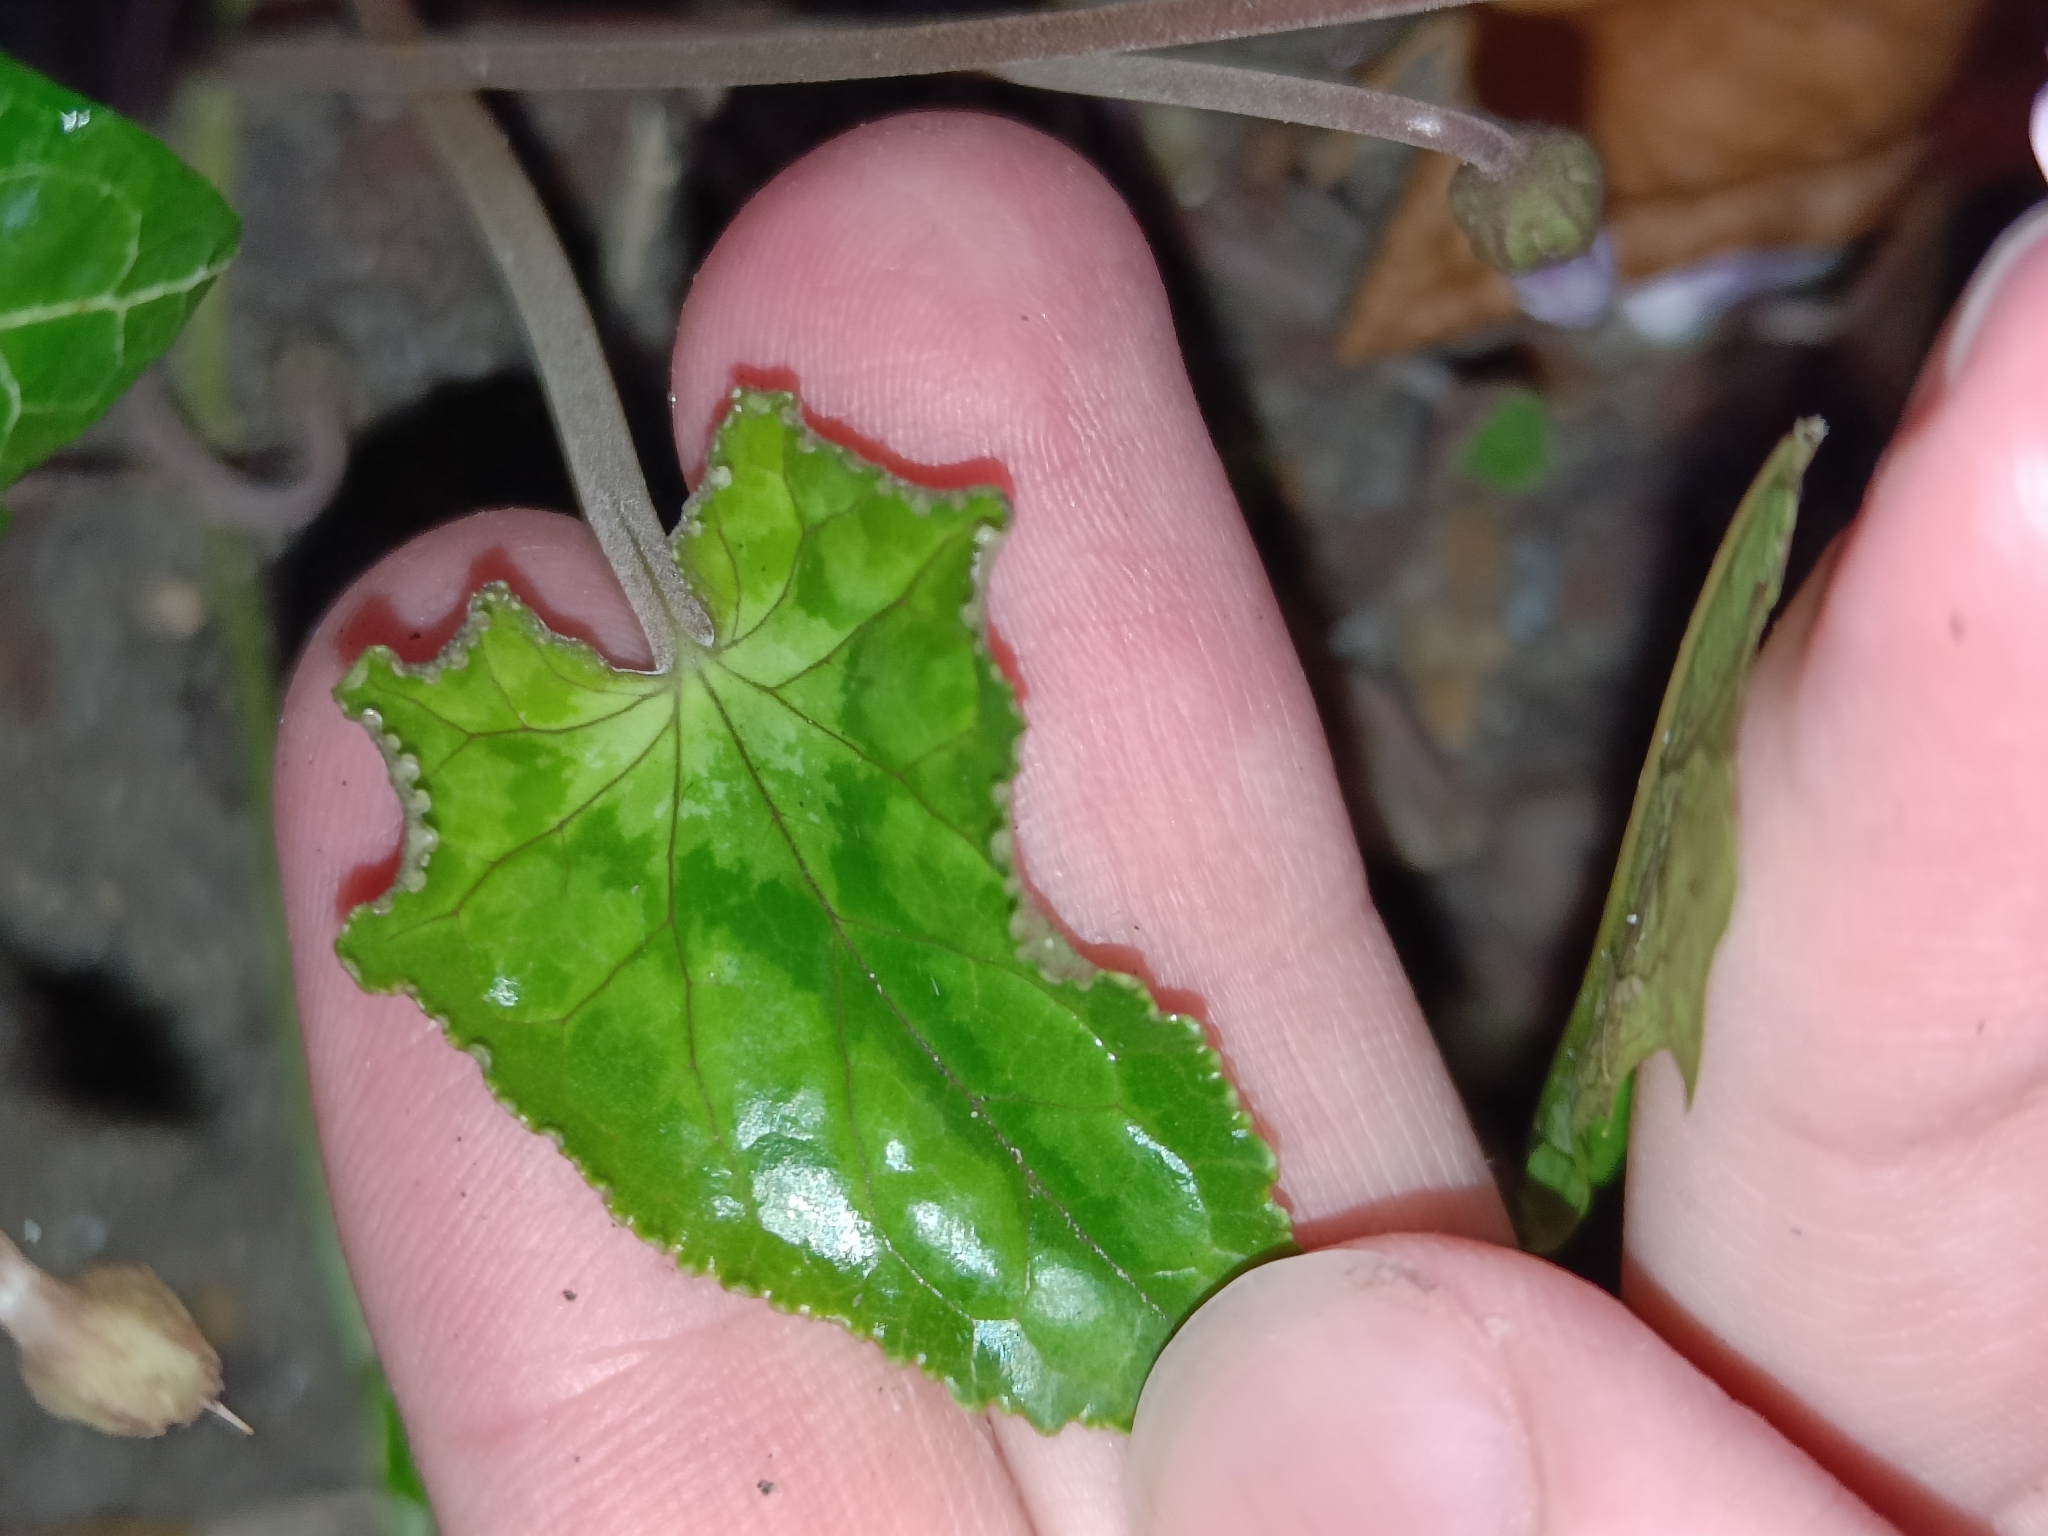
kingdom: Plantae
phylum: Tracheophyta
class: Magnoliopsida
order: Ericales
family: Primulaceae
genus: Cyclamen
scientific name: Cyclamen hederifolium
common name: Sowbread
